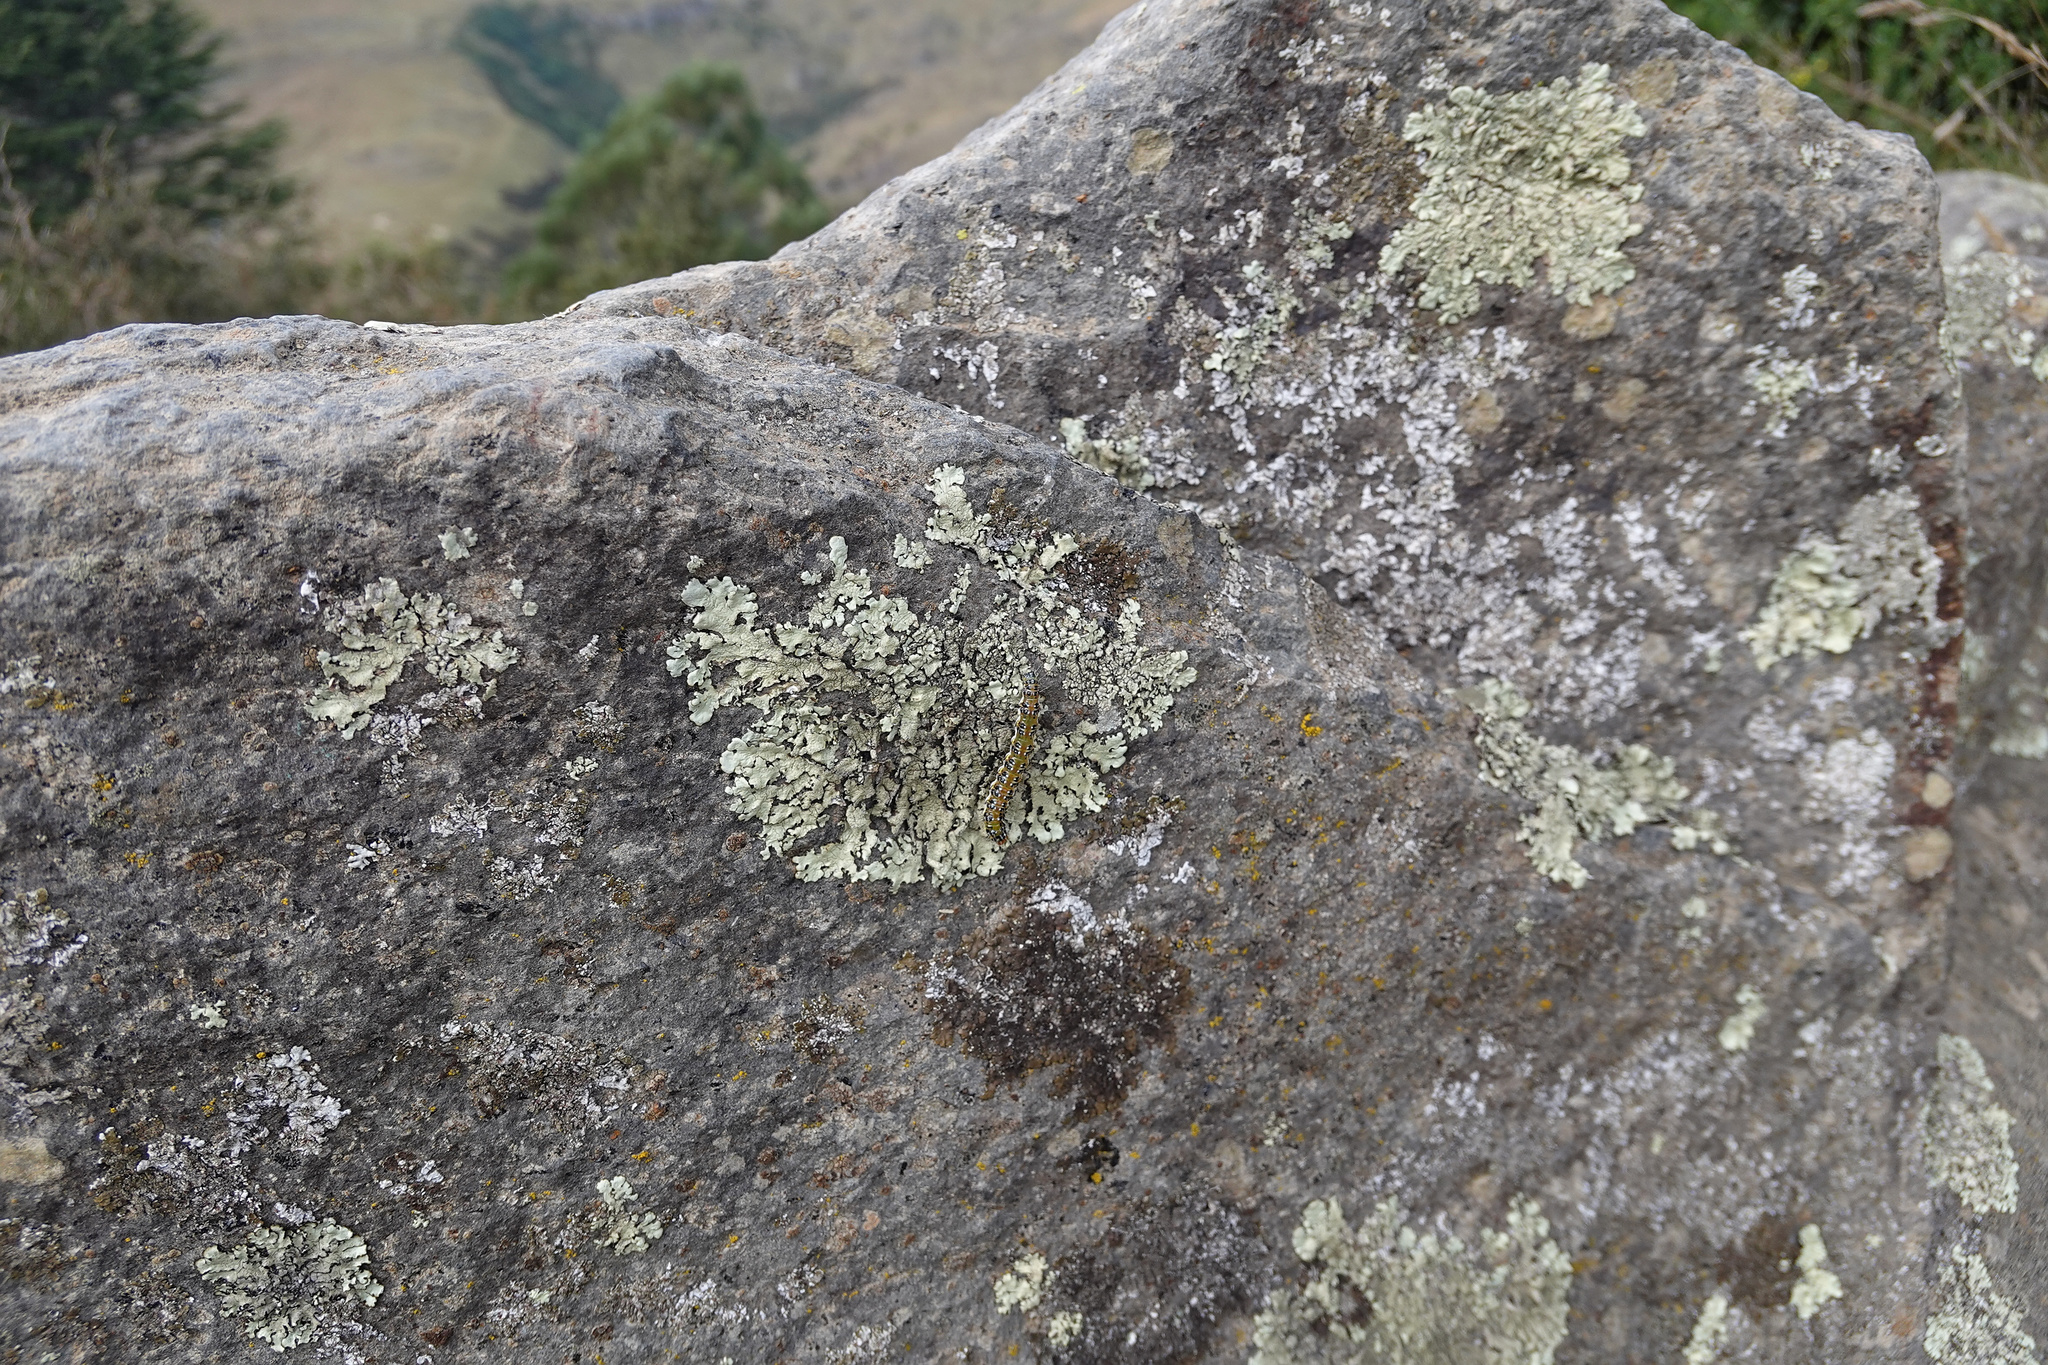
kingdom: Animalia
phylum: Arthropoda
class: Insecta
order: Lepidoptera
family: Crambidae
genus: Uresiphita
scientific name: Uresiphita
